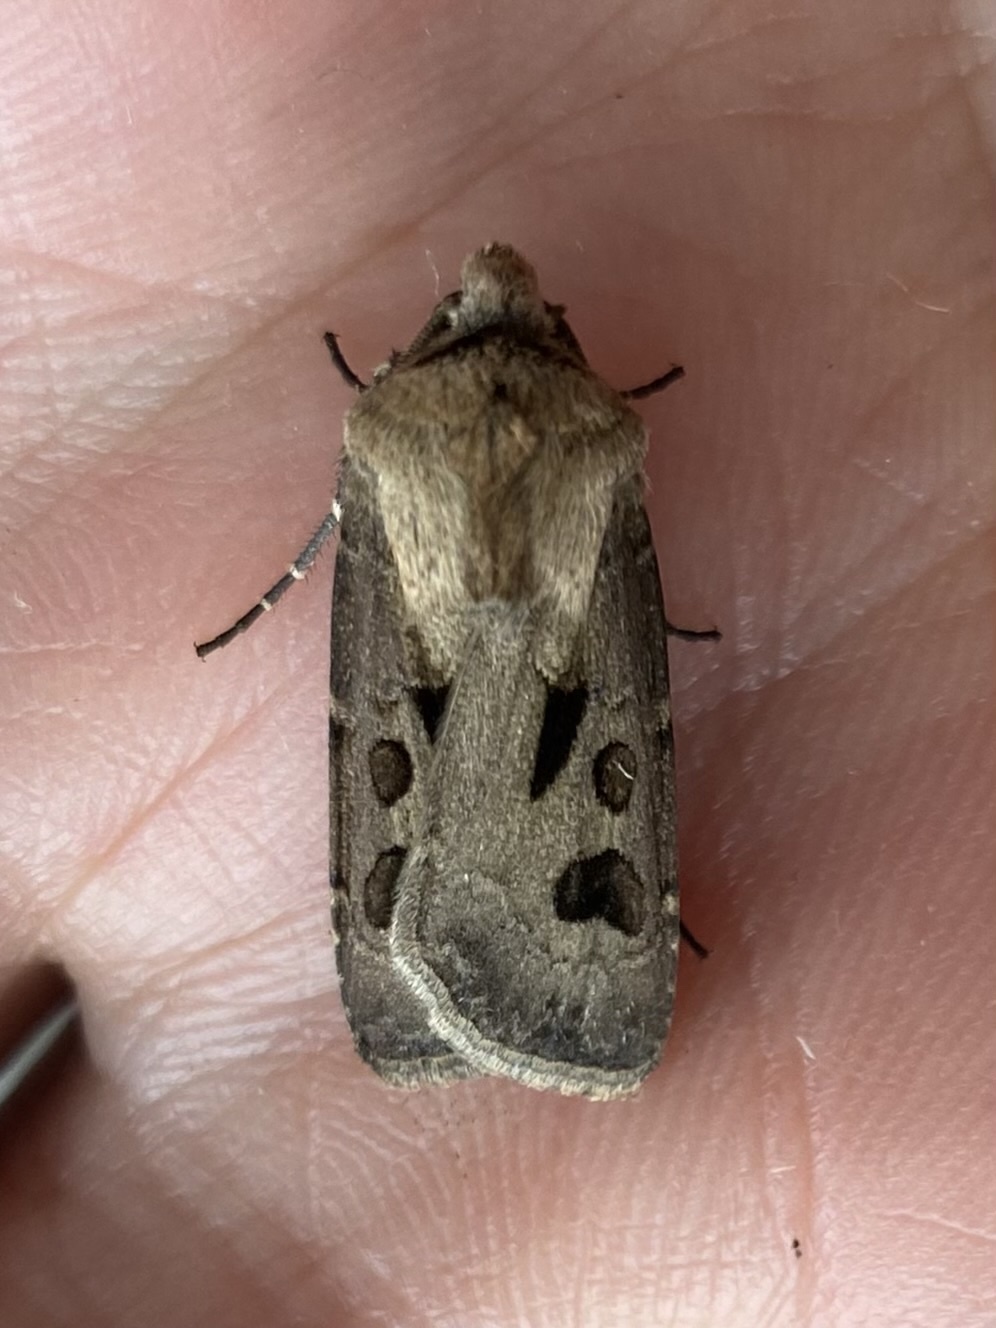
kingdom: Animalia
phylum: Arthropoda
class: Insecta
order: Lepidoptera
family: Noctuidae
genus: Agrotis
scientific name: Agrotis exclamationis
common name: Heart and dart
